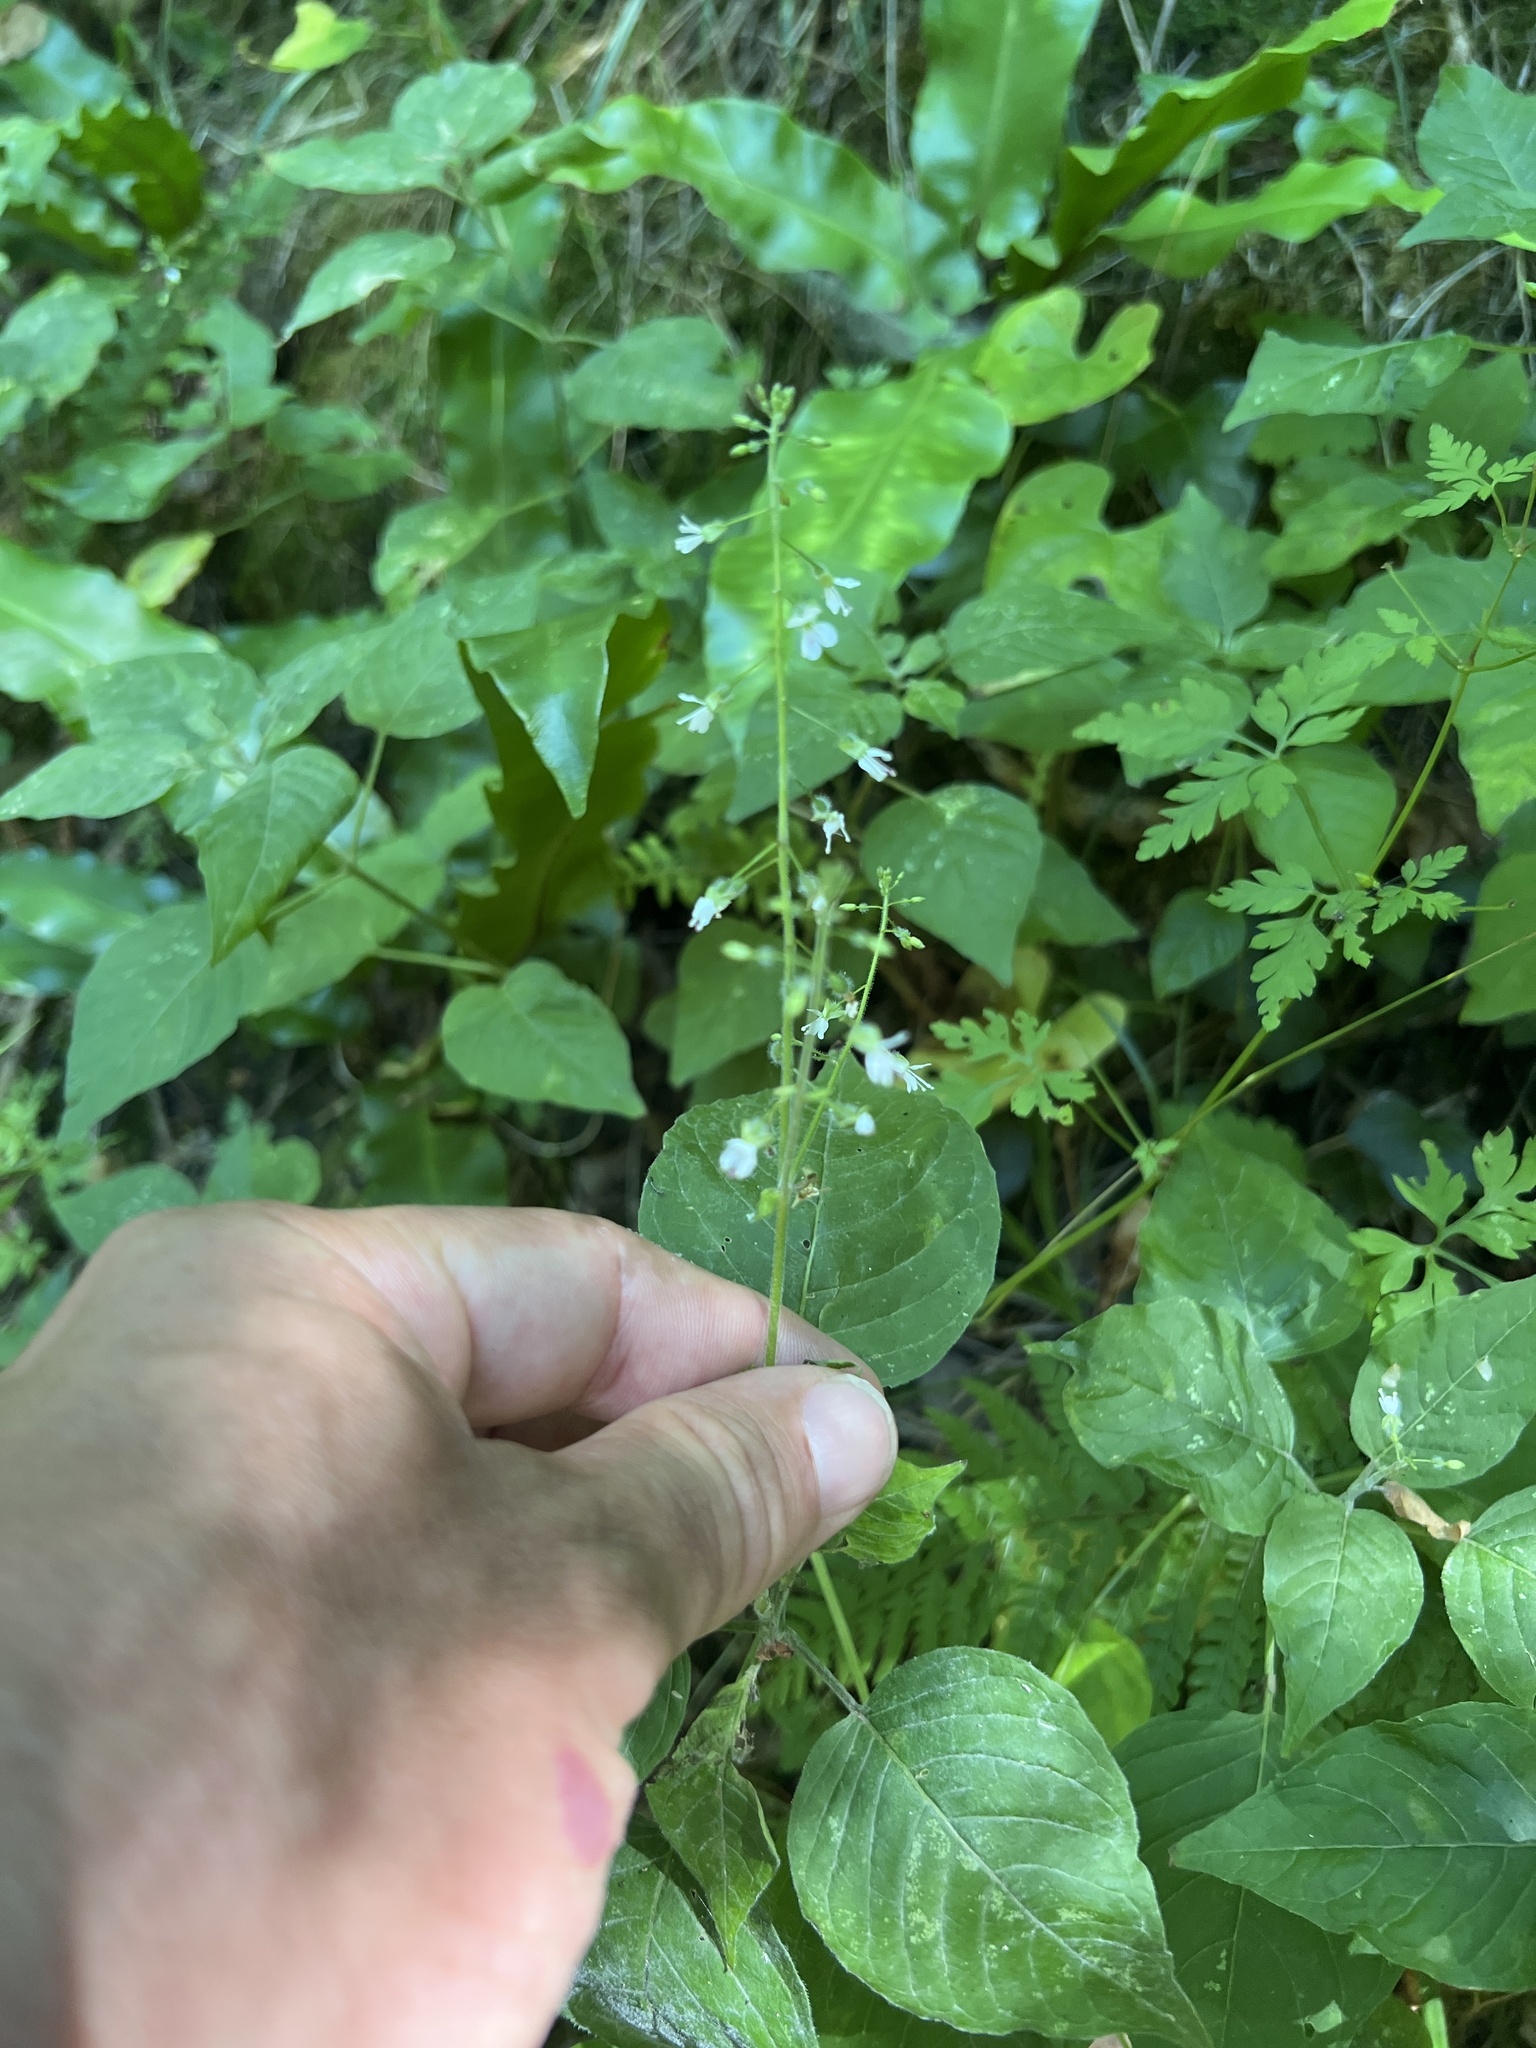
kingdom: Plantae
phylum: Tracheophyta
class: Magnoliopsida
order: Myrtales
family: Onagraceae
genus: Circaea
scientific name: Circaea lutetiana
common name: Enchanter's-nightshade
